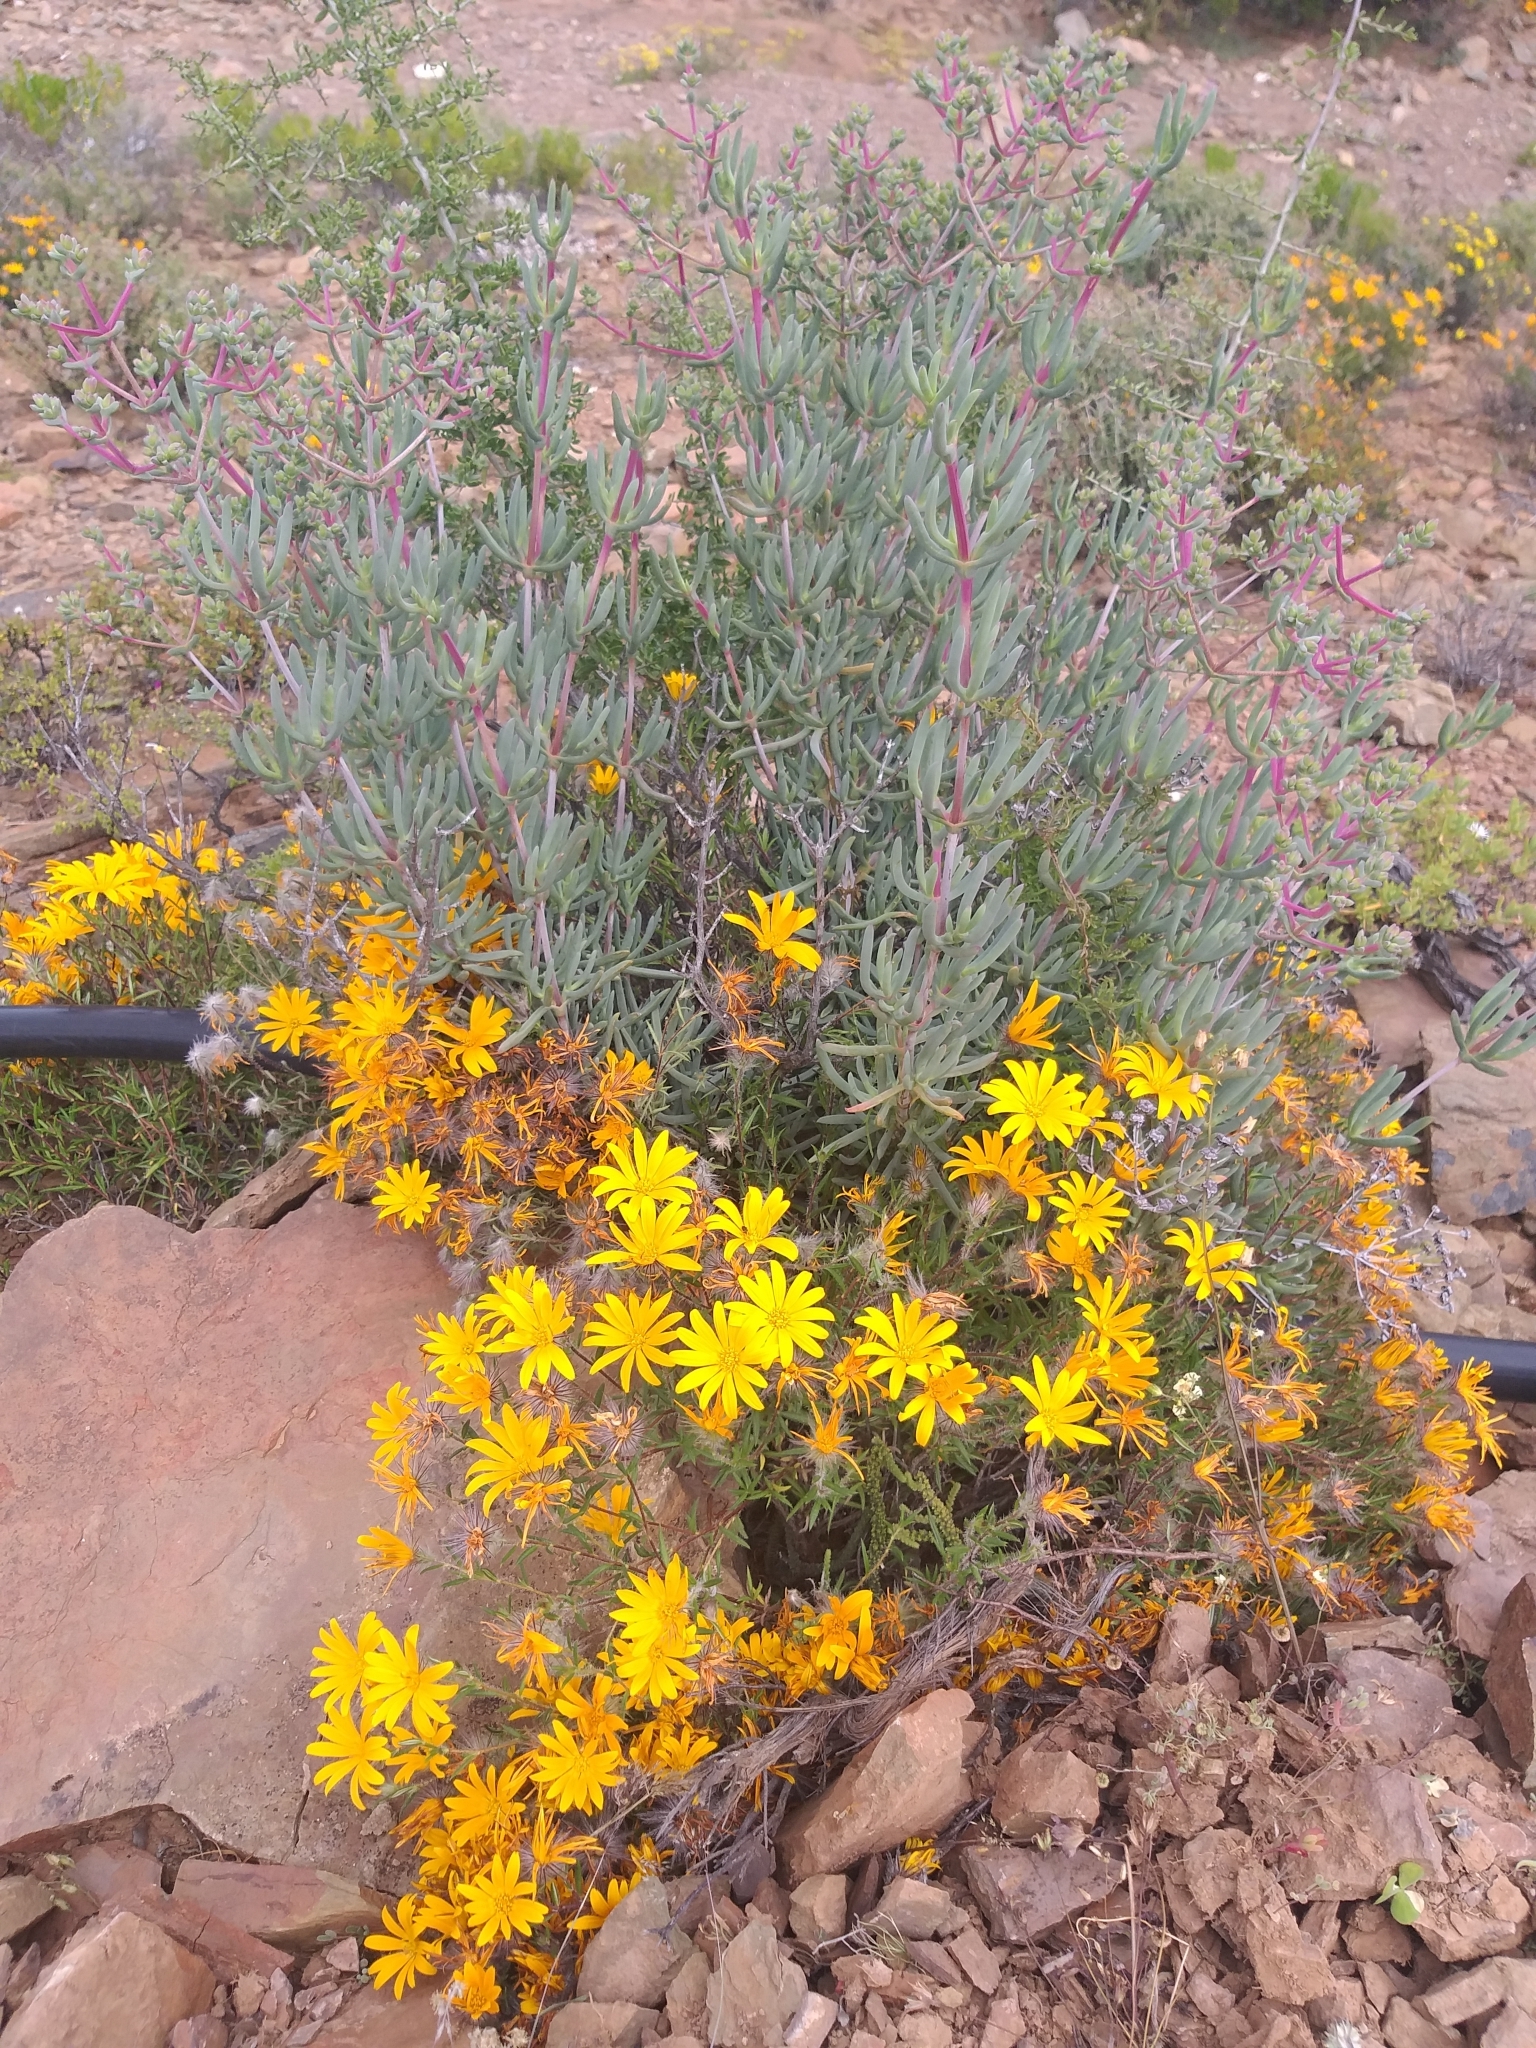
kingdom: Plantae
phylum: Tracheophyta
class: Magnoliopsida
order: Asterales
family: Asteraceae
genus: Hirpicium
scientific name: Hirpicium integrifolium
